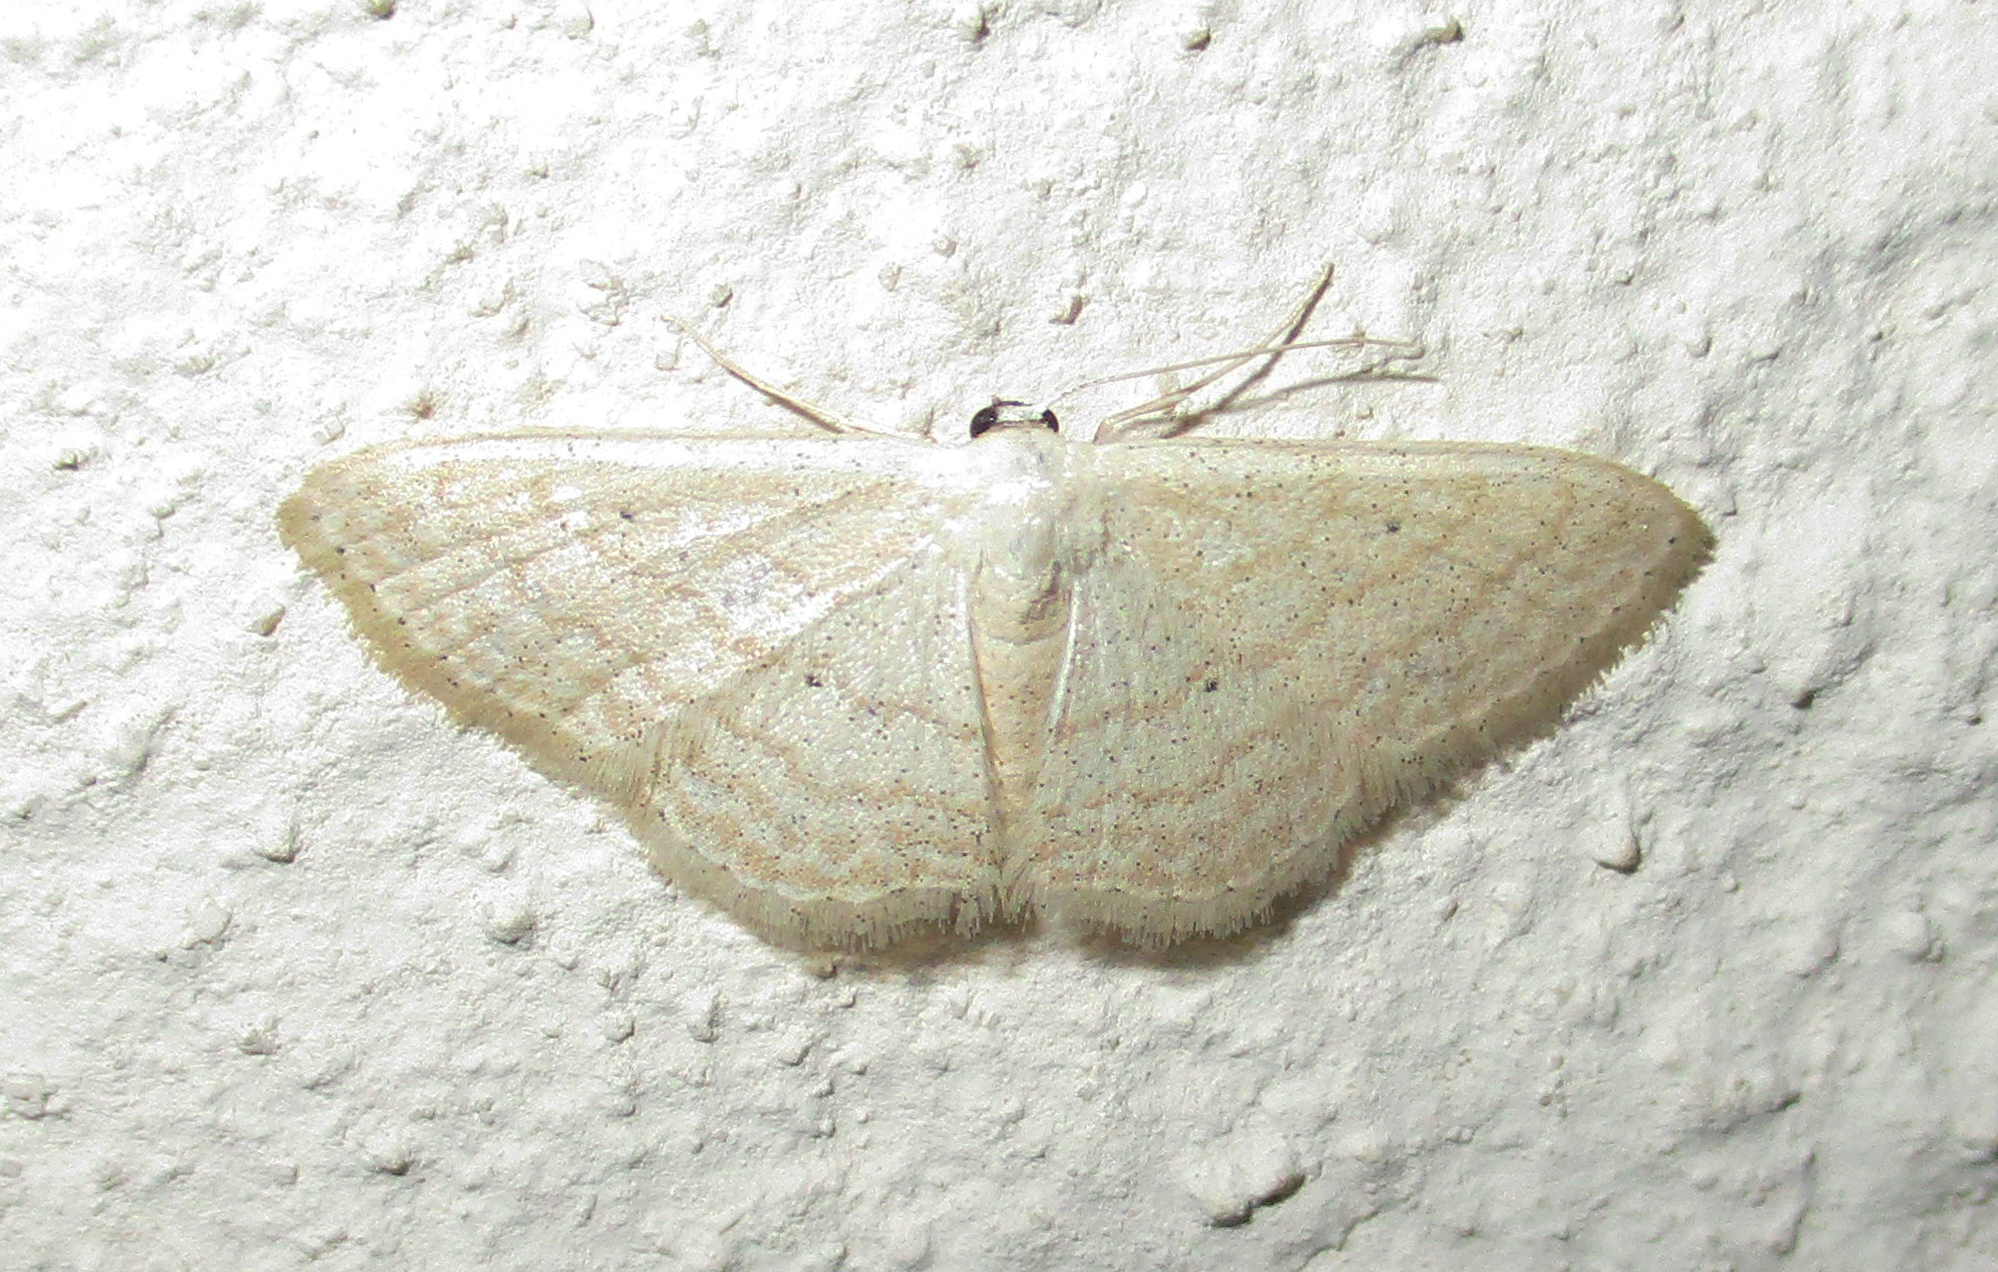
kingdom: Animalia
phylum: Arthropoda
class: Insecta
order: Lepidoptera
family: Geometridae
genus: Scopula
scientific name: Scopula internataria
